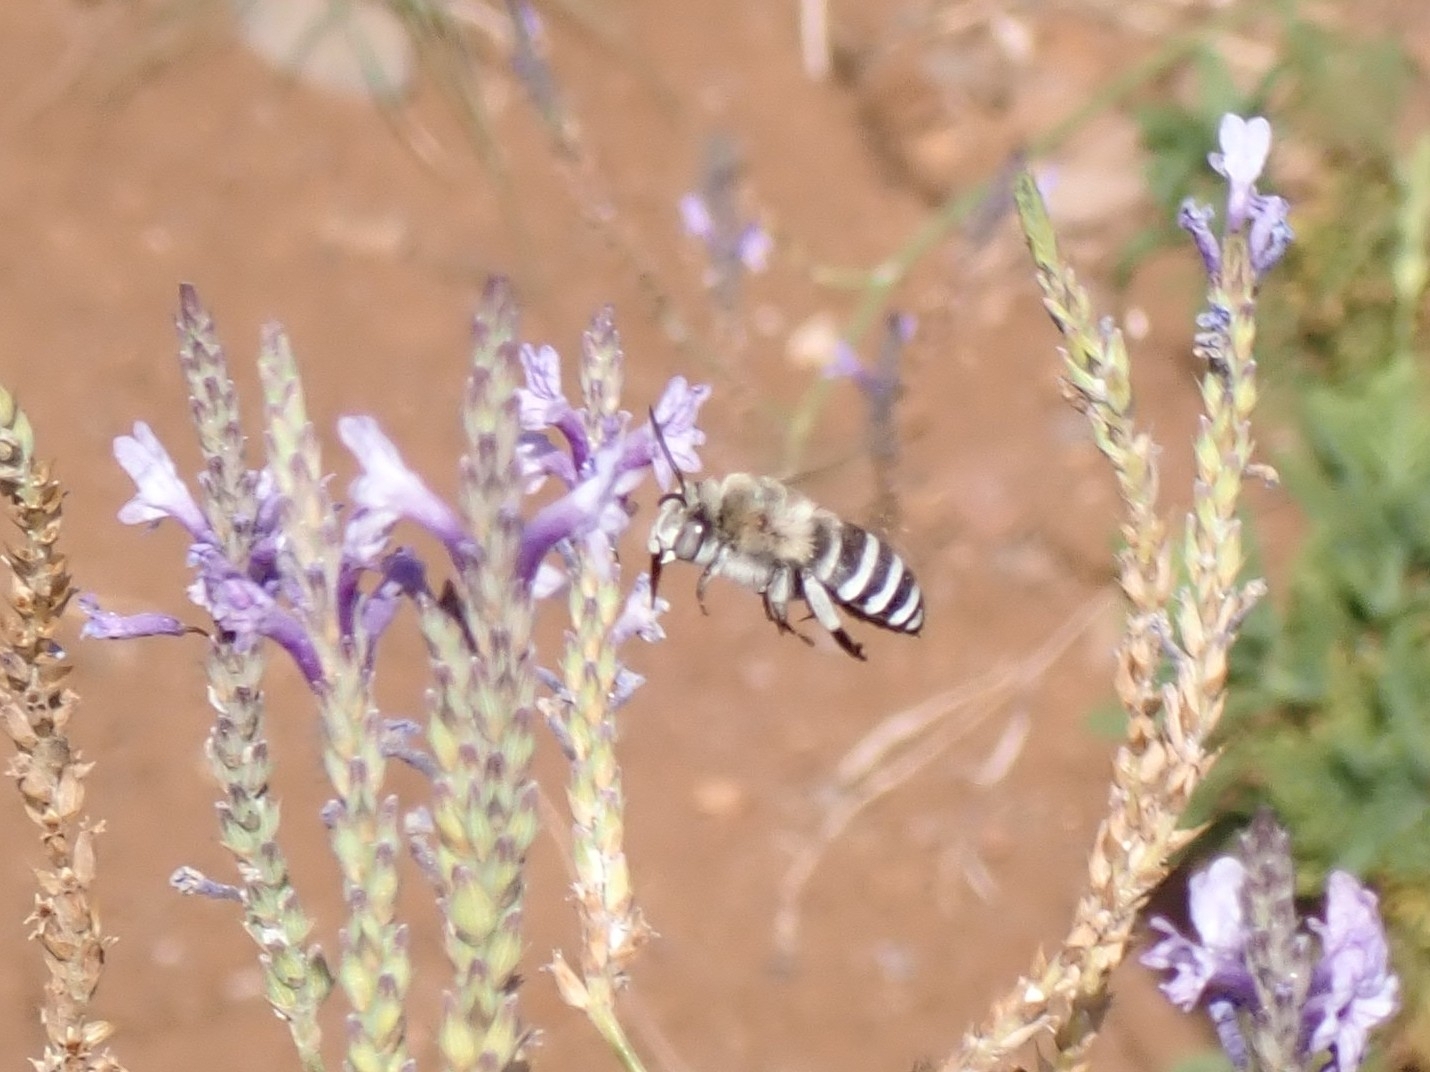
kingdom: Animalia
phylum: Arthropoda
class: Insecta
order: Hymenoptera
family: Apidae
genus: Amegilla
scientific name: Amegilla quadrifasciata
